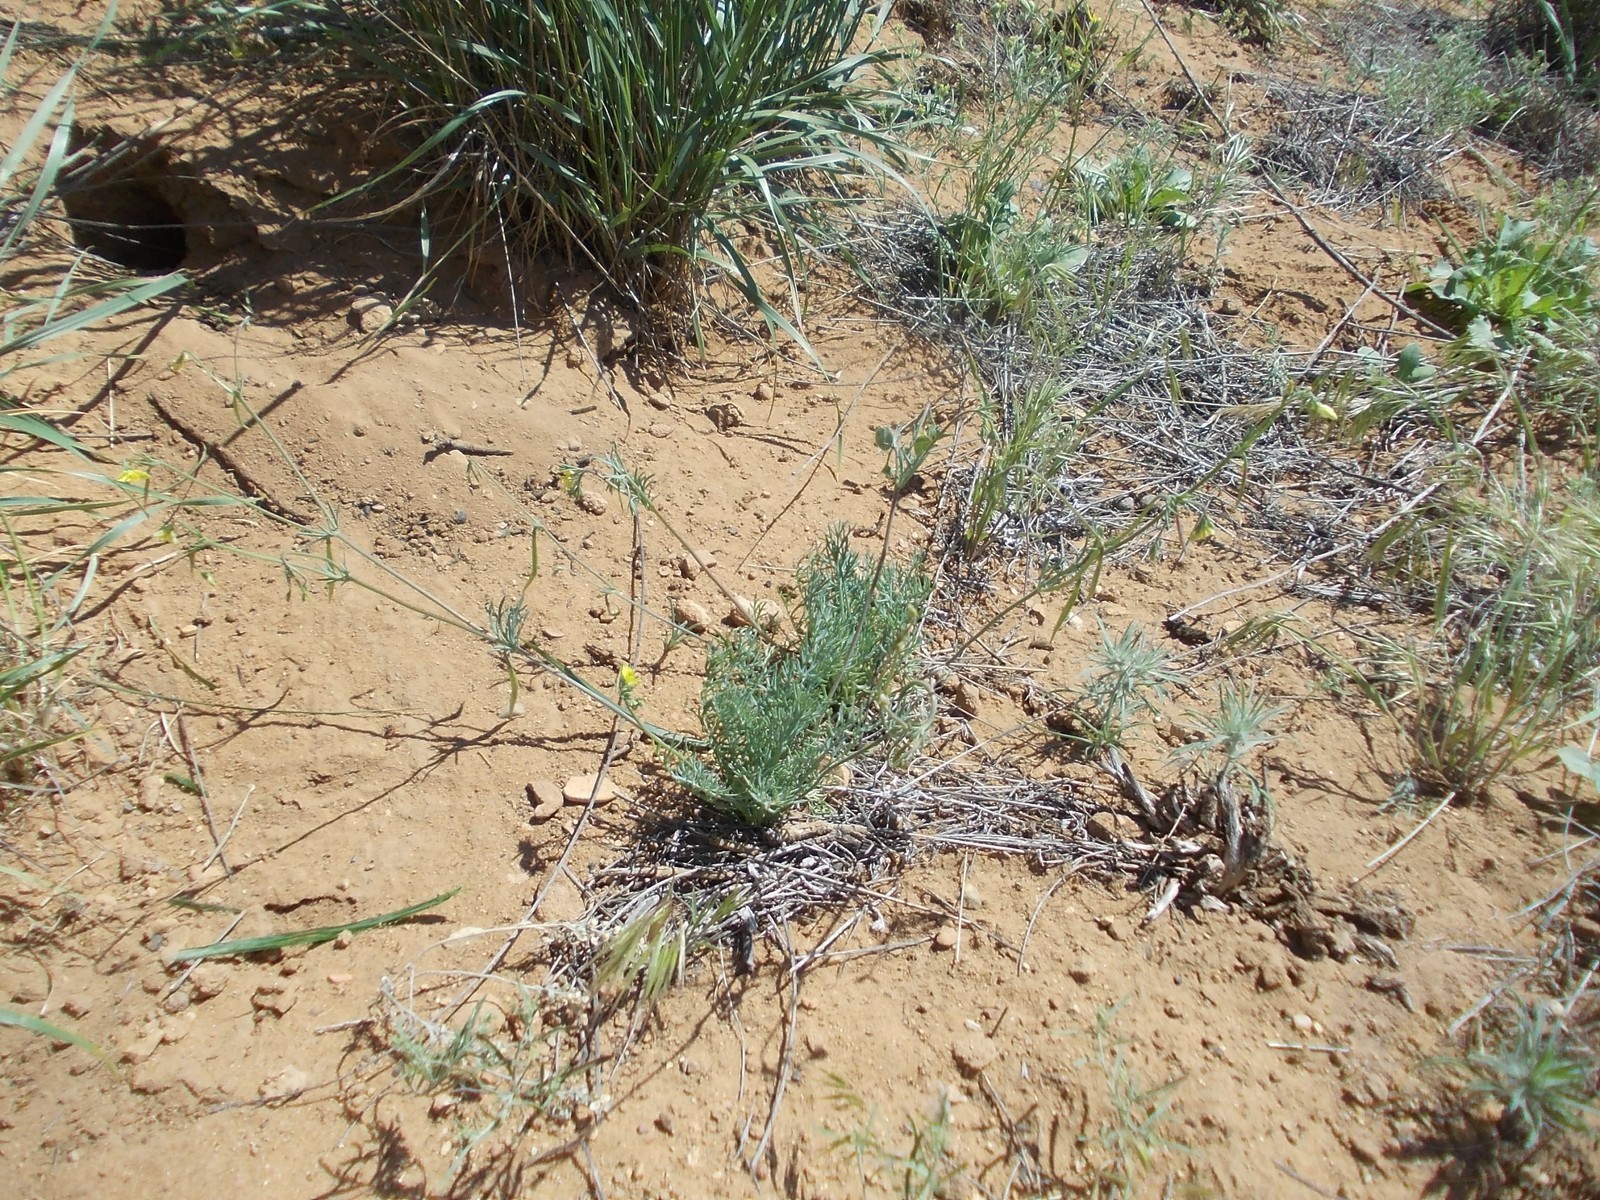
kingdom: Plantae
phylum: Tracheophyta
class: Magnoliopsida
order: Ranunculales
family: Papaveraceae
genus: Hypecoum
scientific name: Hypecoum pendulum
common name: Nodding hypecoum
